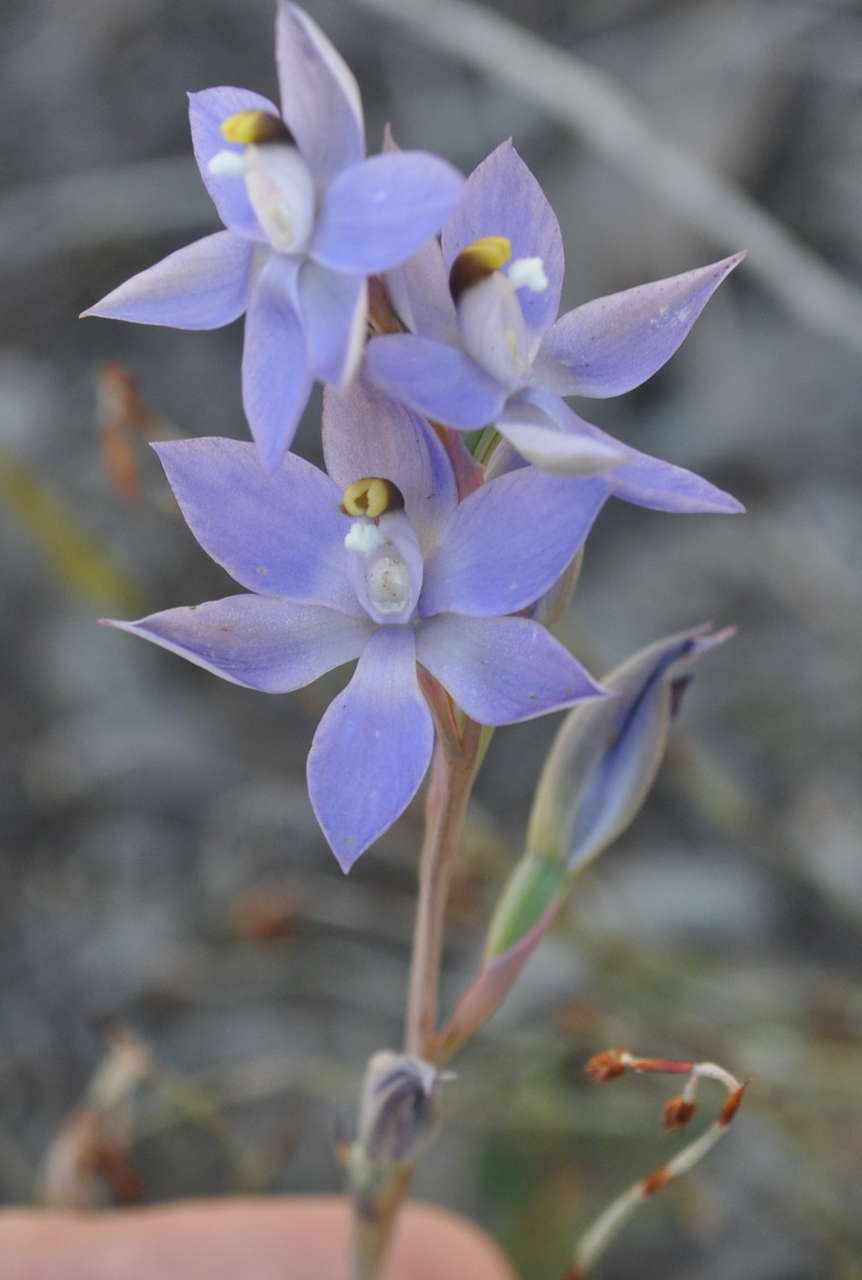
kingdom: Plantae
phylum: Tracheophyta
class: Liliopsida
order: Asparagales
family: Orchidaceae
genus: Thelymitra
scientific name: Thelymitra alcockiae
